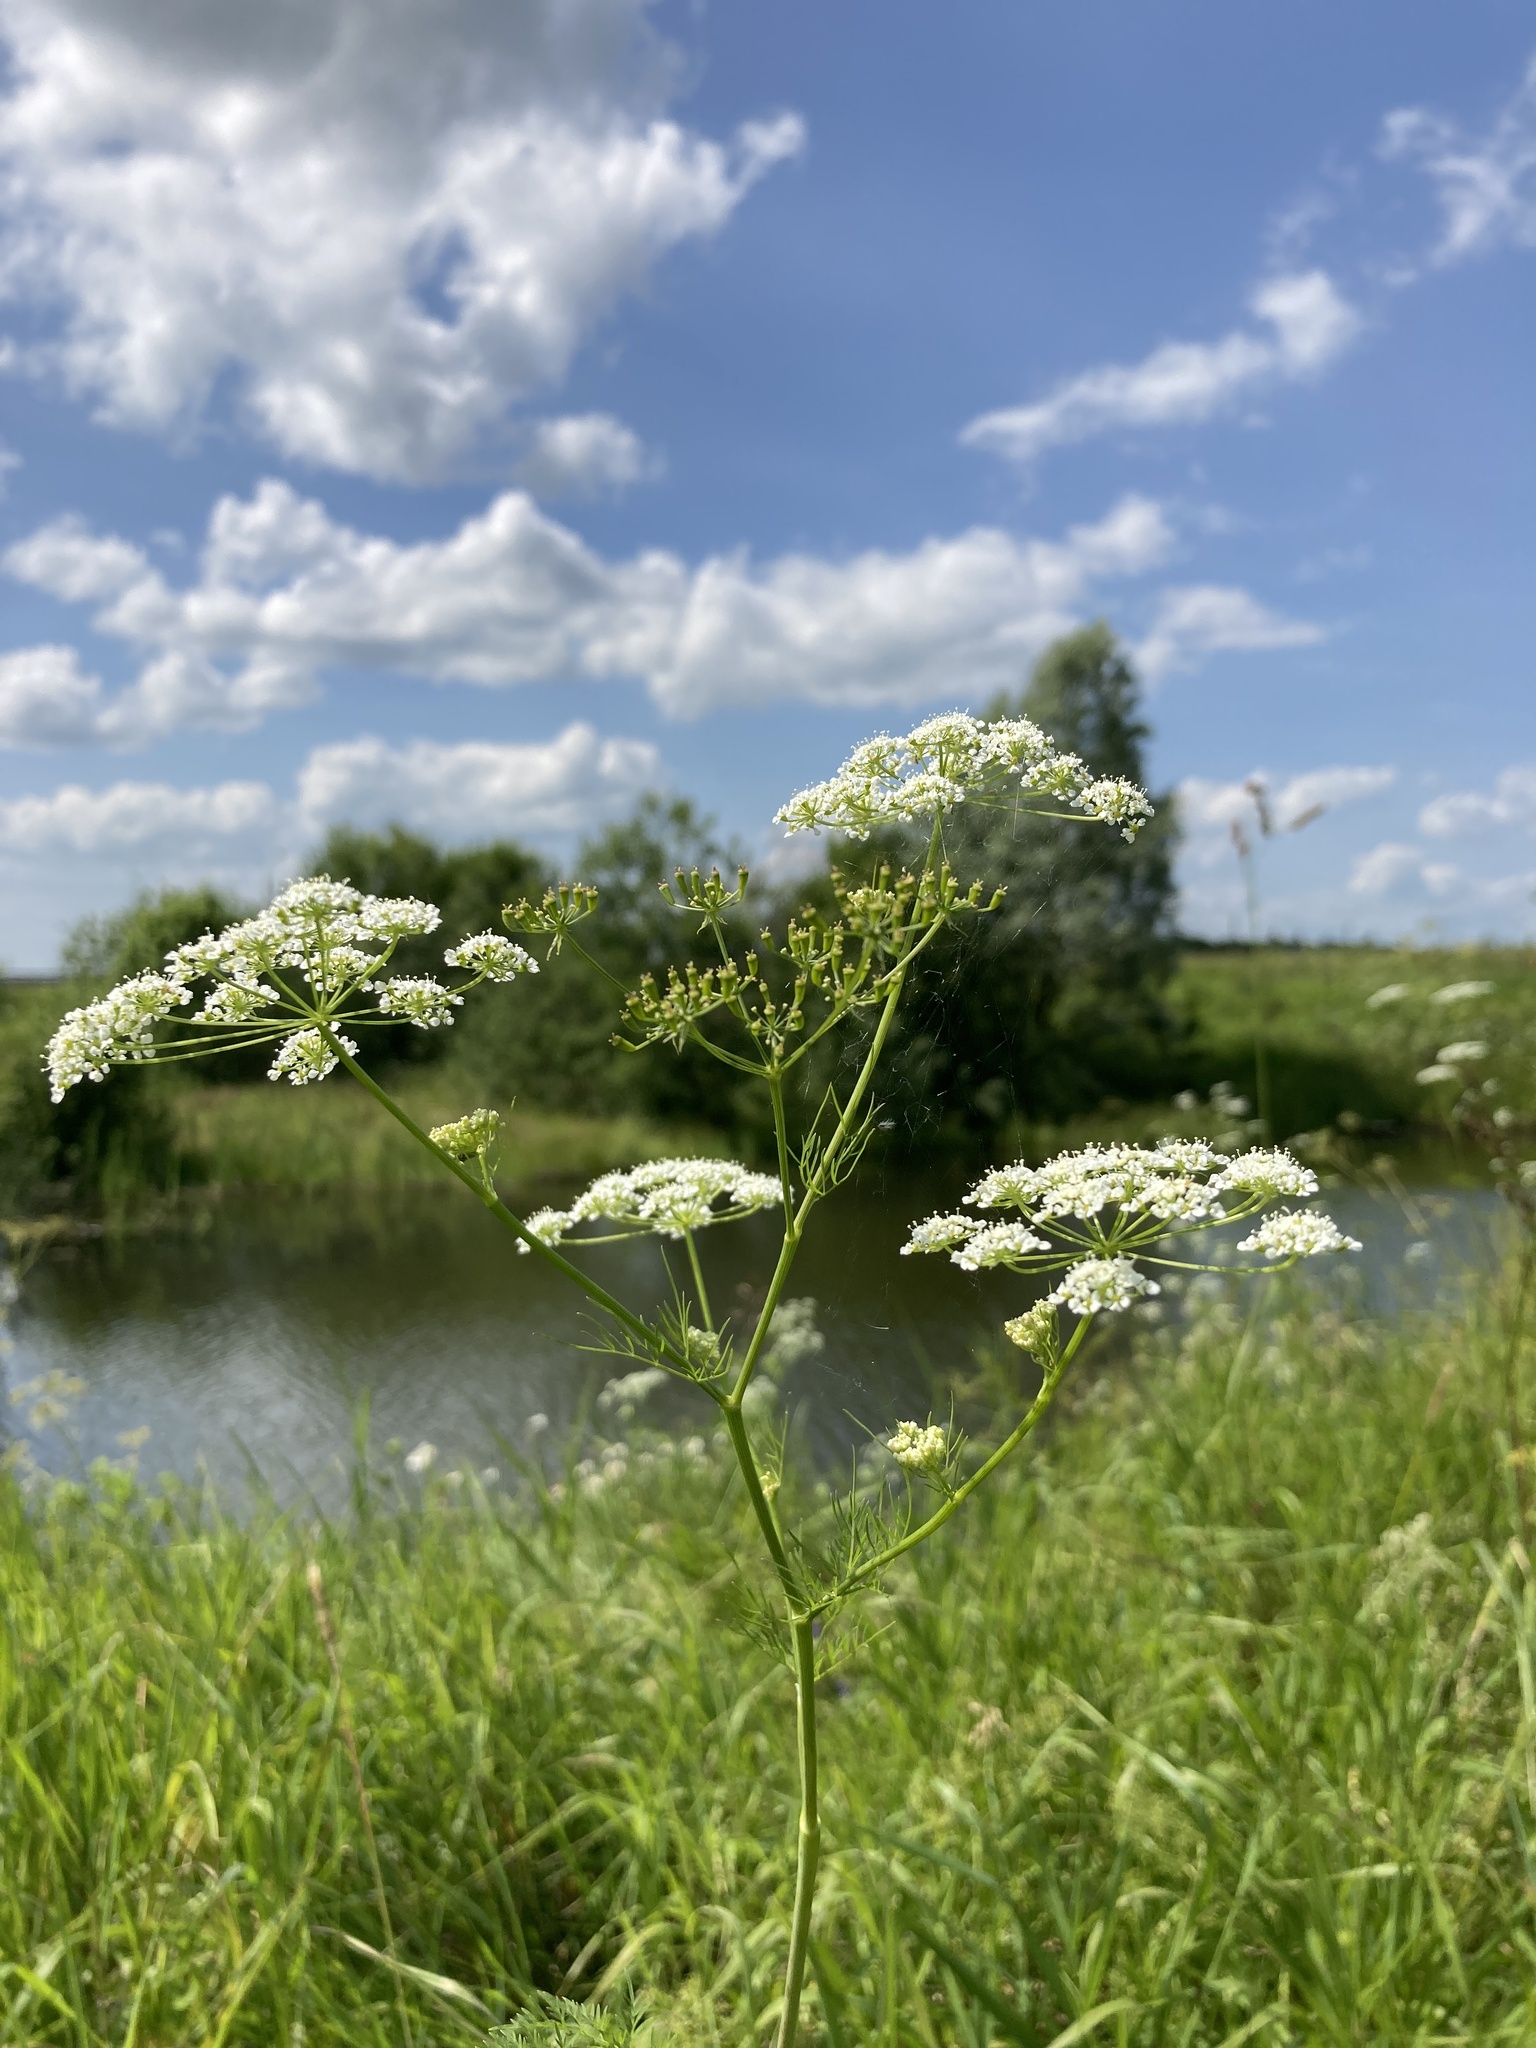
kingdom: Plantae
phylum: Tracheophyta
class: Magnoliopsida
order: Apiales
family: Apiaceae
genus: Chaerophyllum
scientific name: Chaerophyllum prescottii
